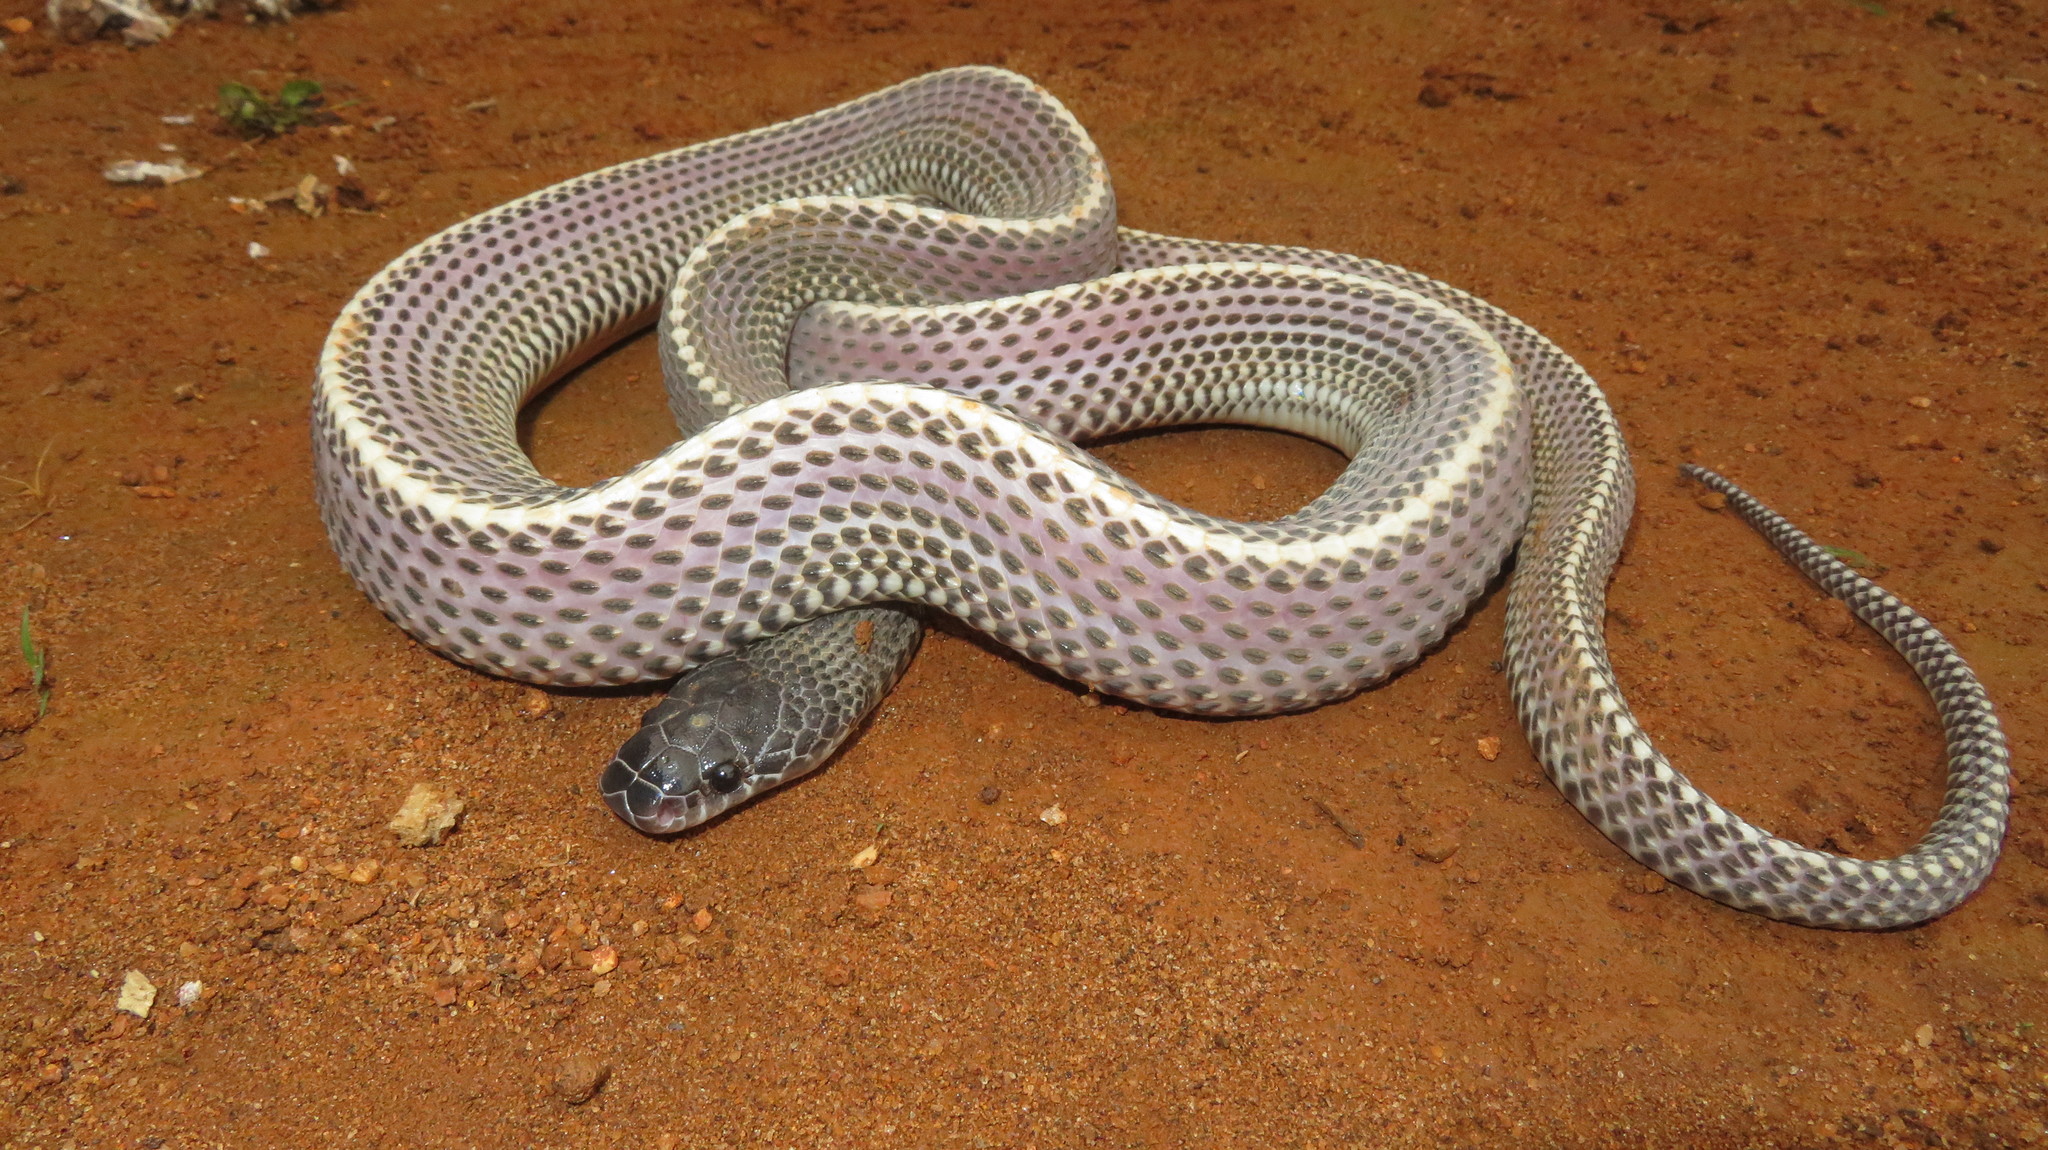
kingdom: Animalia
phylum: Chordata
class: Squamata
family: Lamprophiidae
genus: Limaformosa
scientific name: Limaformosa capensis
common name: Cape file snake
